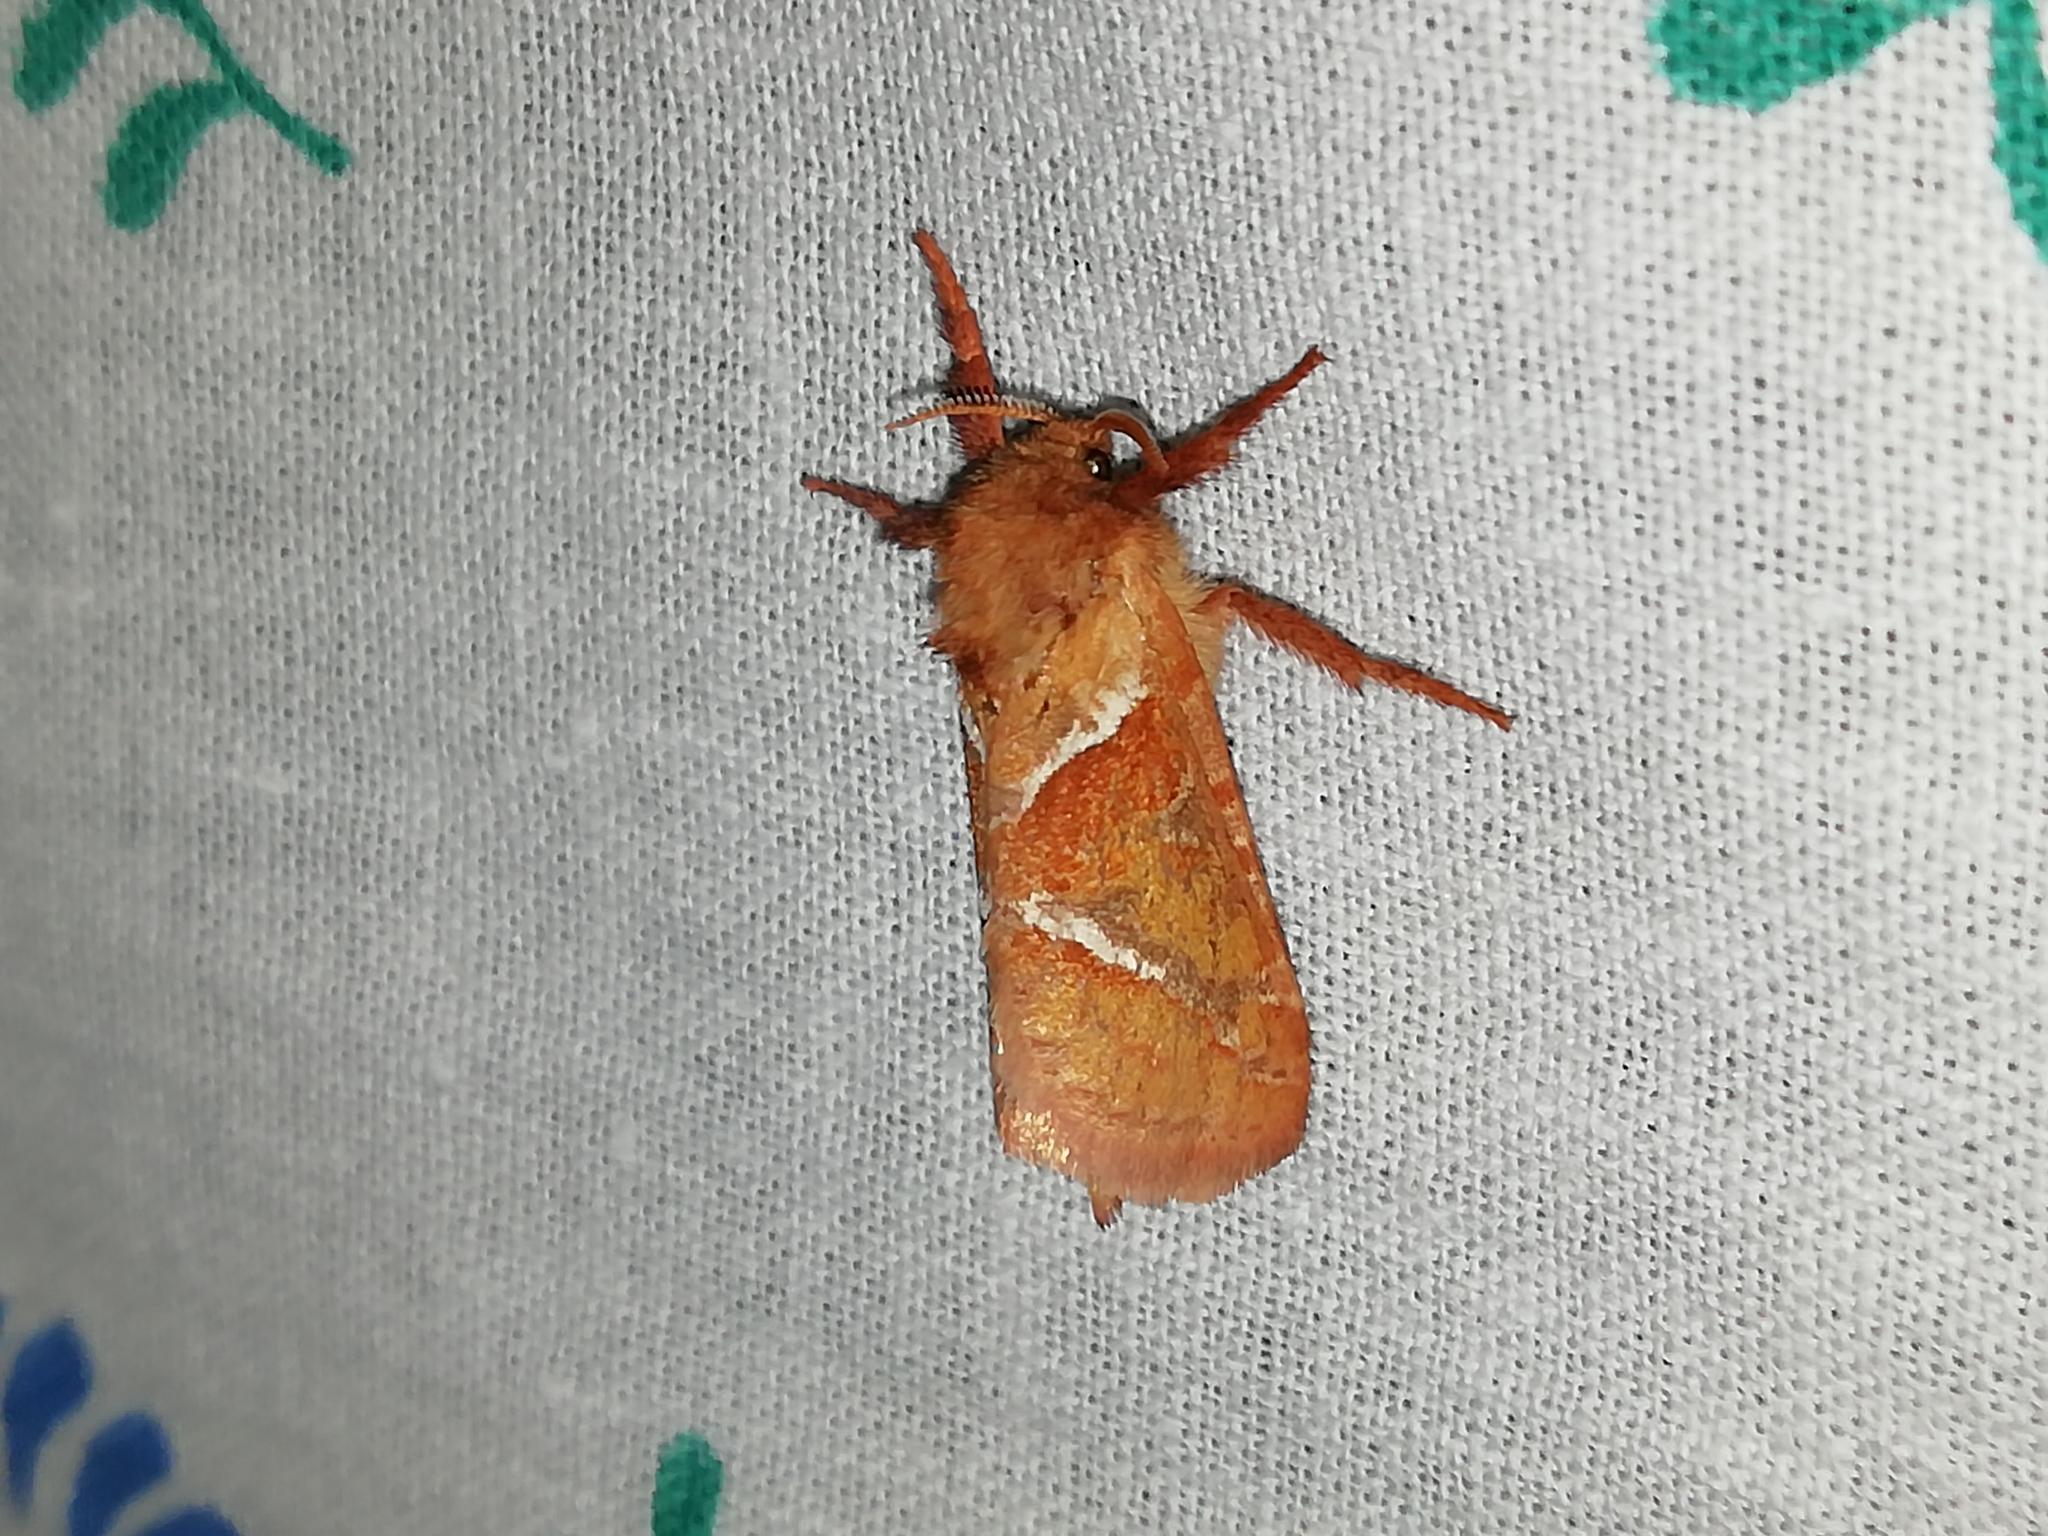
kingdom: Animalia
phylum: Arthropoda
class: Insecta
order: Lepidoptera
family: Hepialidae
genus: Triodia
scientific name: Triodia sylvina
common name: Orange swift
